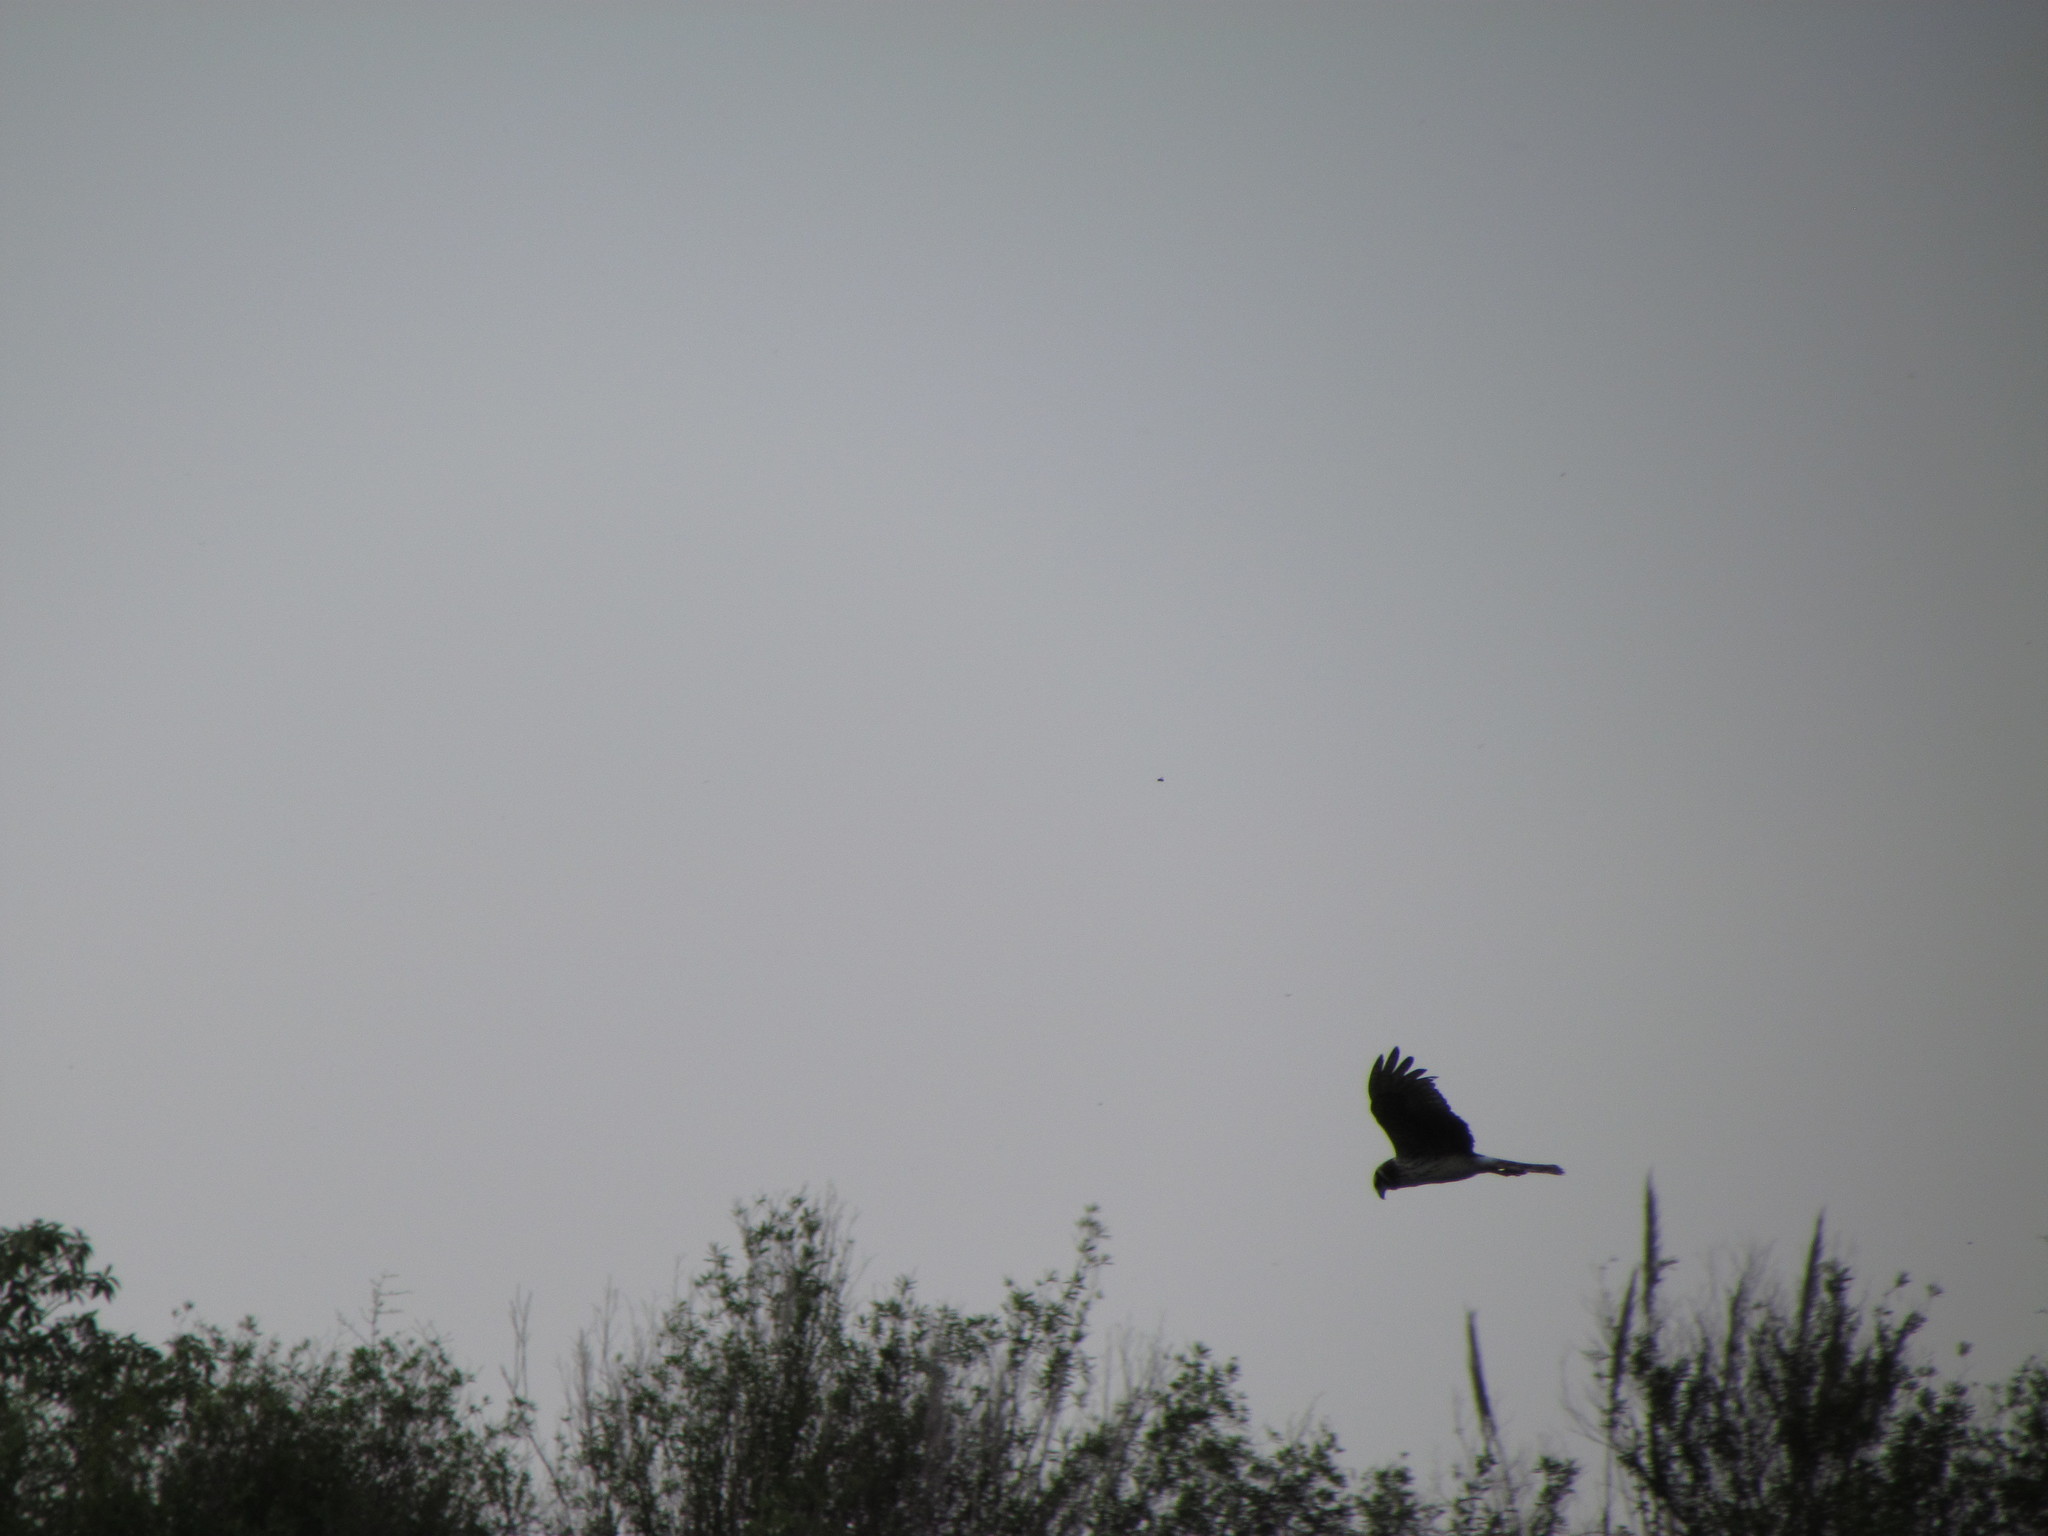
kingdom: Animalia
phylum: Chordata
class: Aves
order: Accipitriformes
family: Accipitridae
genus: Circus
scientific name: Circus buffoni
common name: Long-winged harrier
